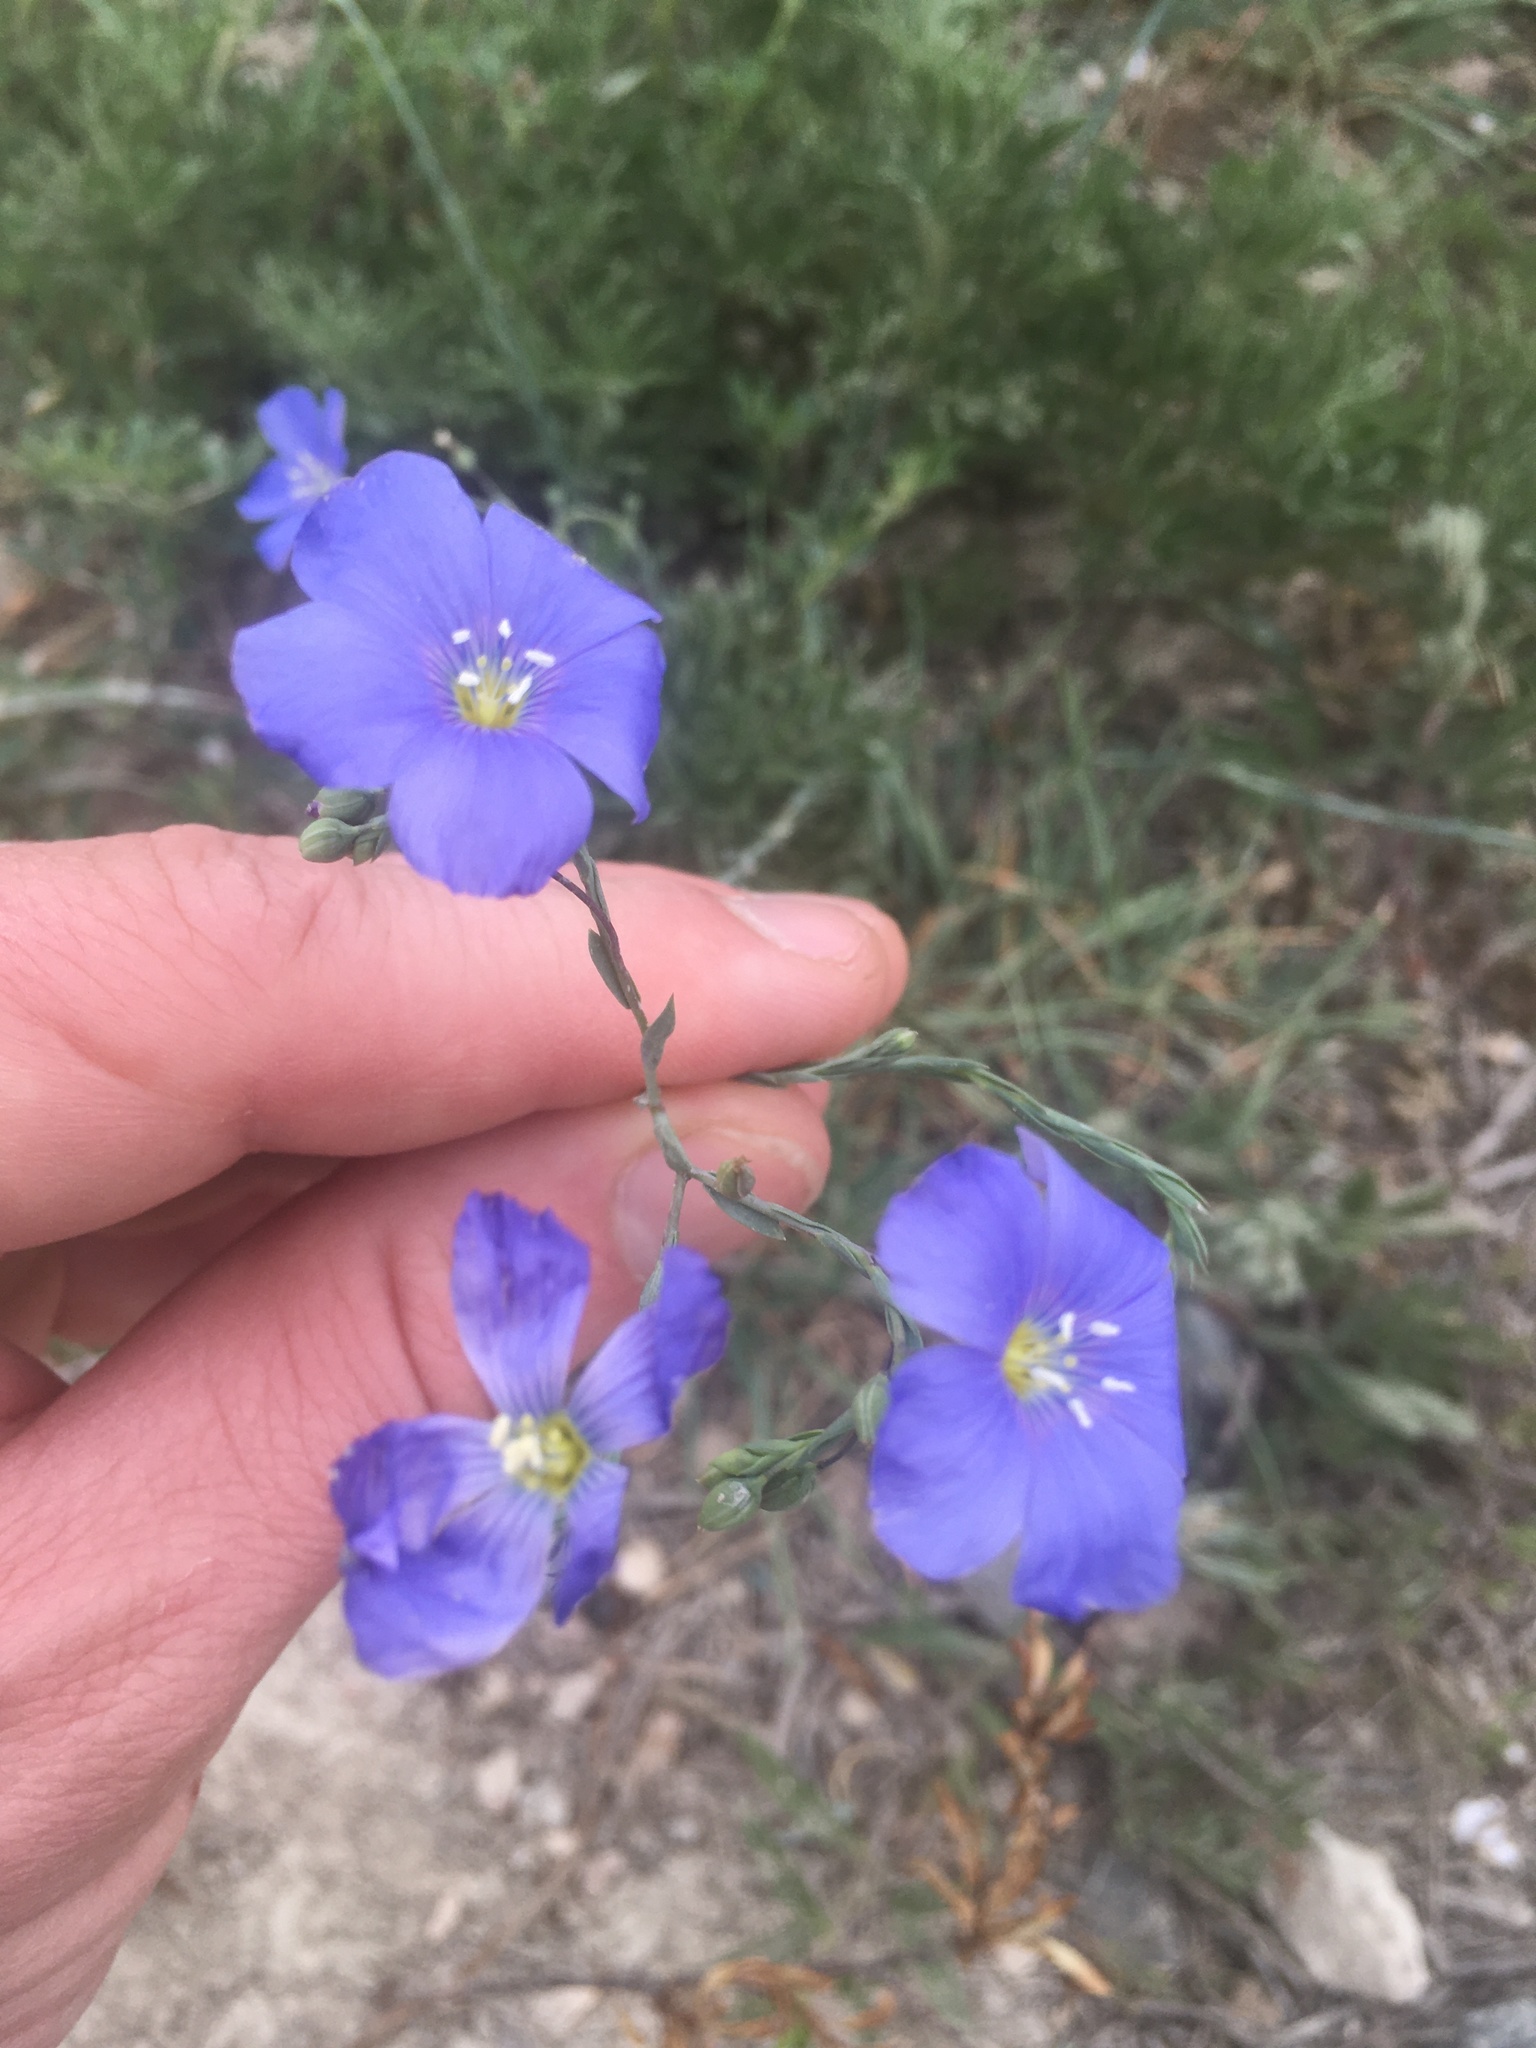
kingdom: Plantae
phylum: Tracheophyta
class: Magnoliopsida
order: Malpighiales
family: Linaceae
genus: Linum
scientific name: Linum austriacum
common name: Austrian flax
